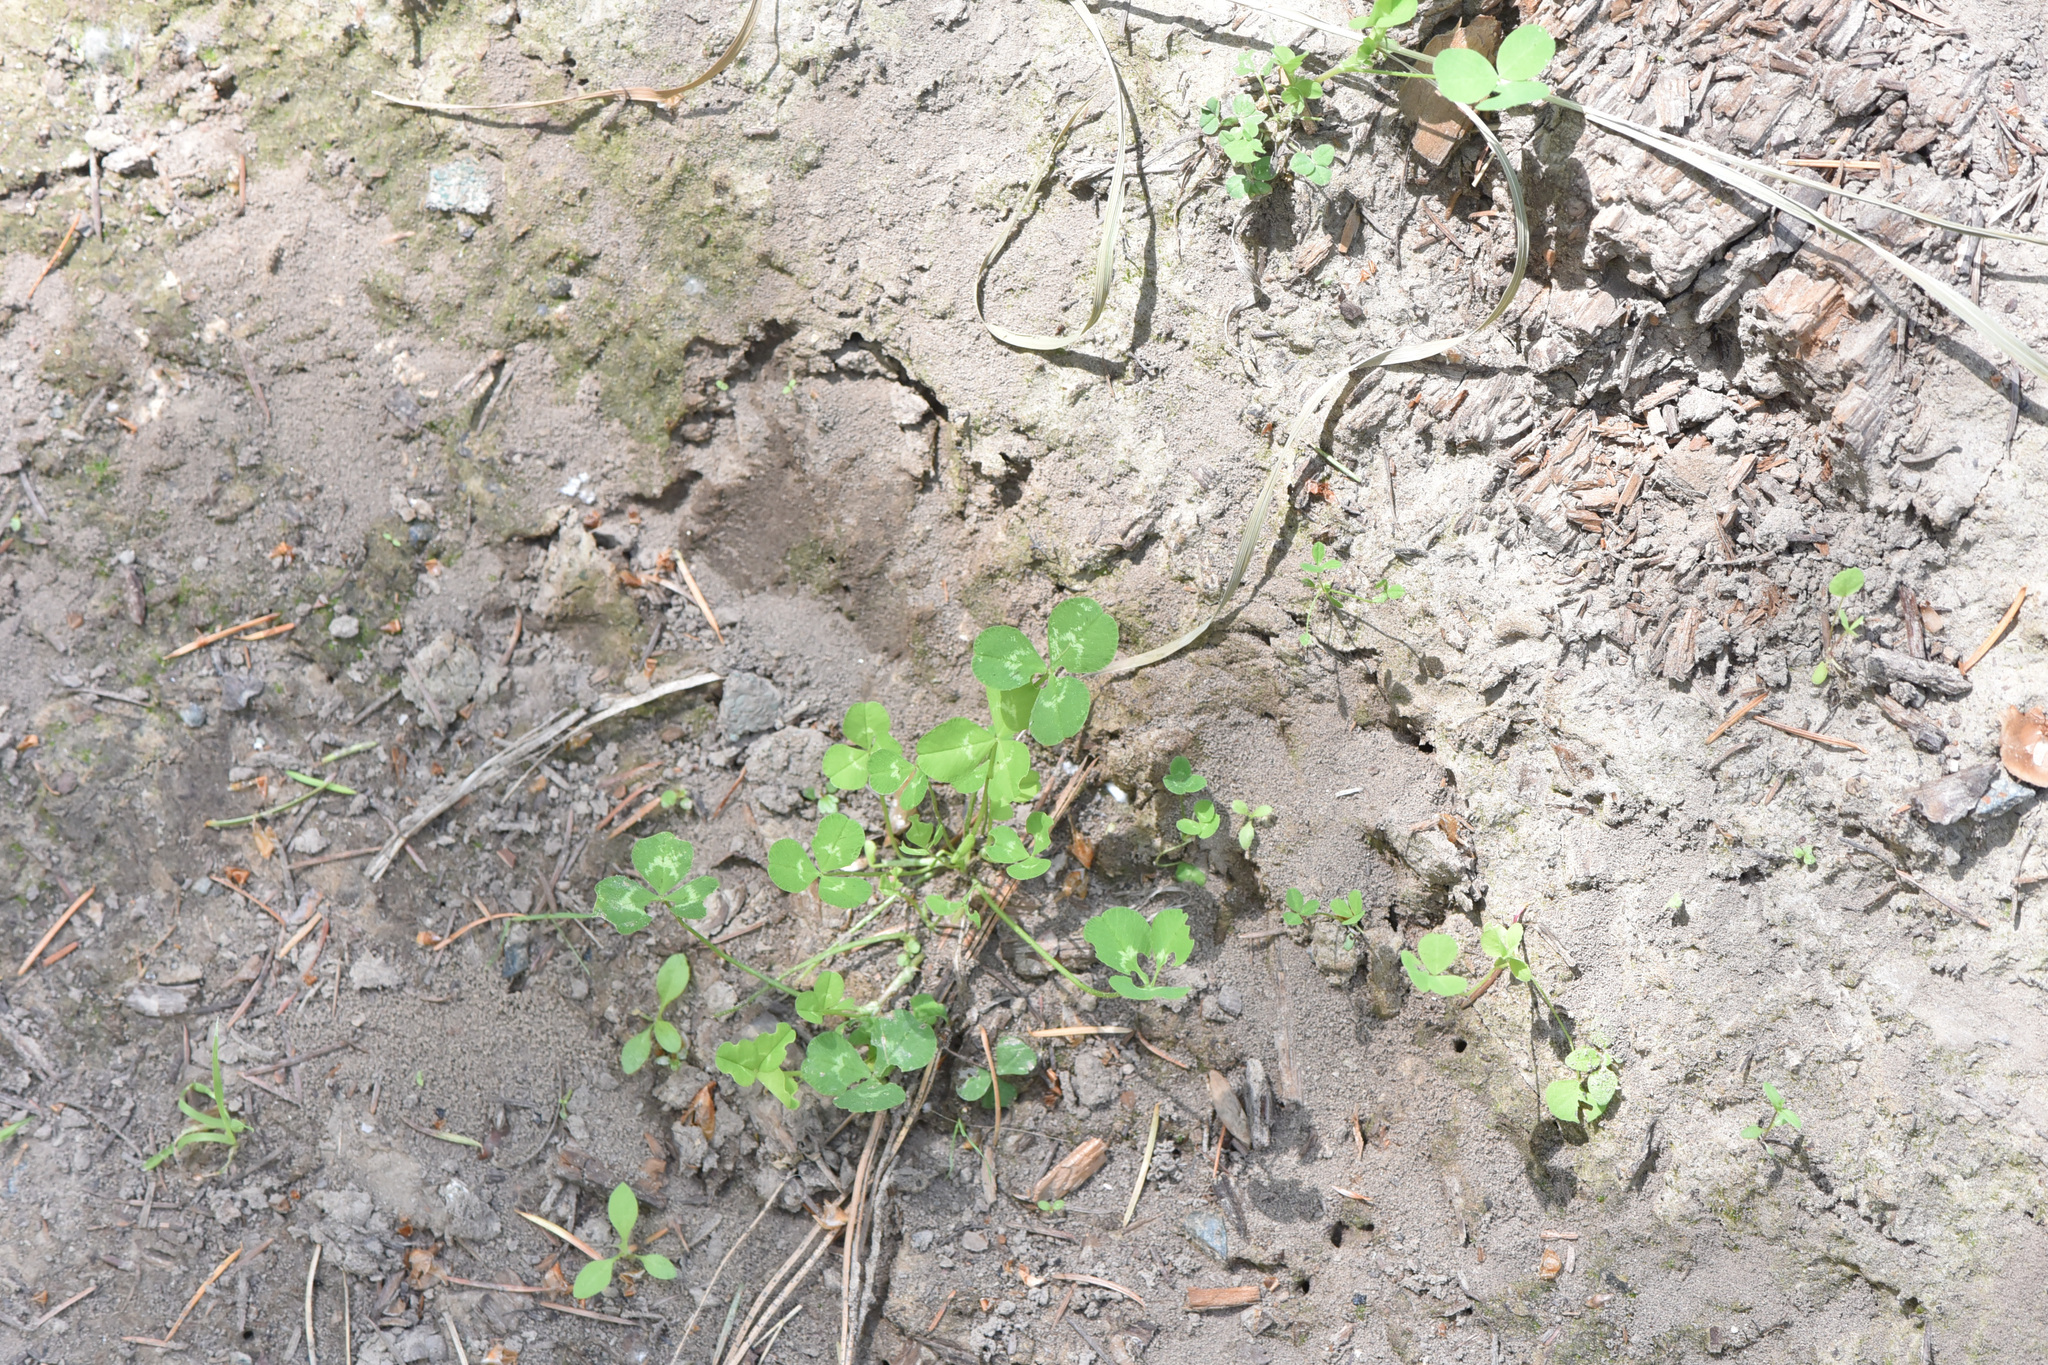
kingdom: Plantae
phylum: Tracheophyta
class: Magnoliopsida
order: Fabales
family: Fabaceae
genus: Trifolium
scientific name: Trifolium repens
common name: White clover
